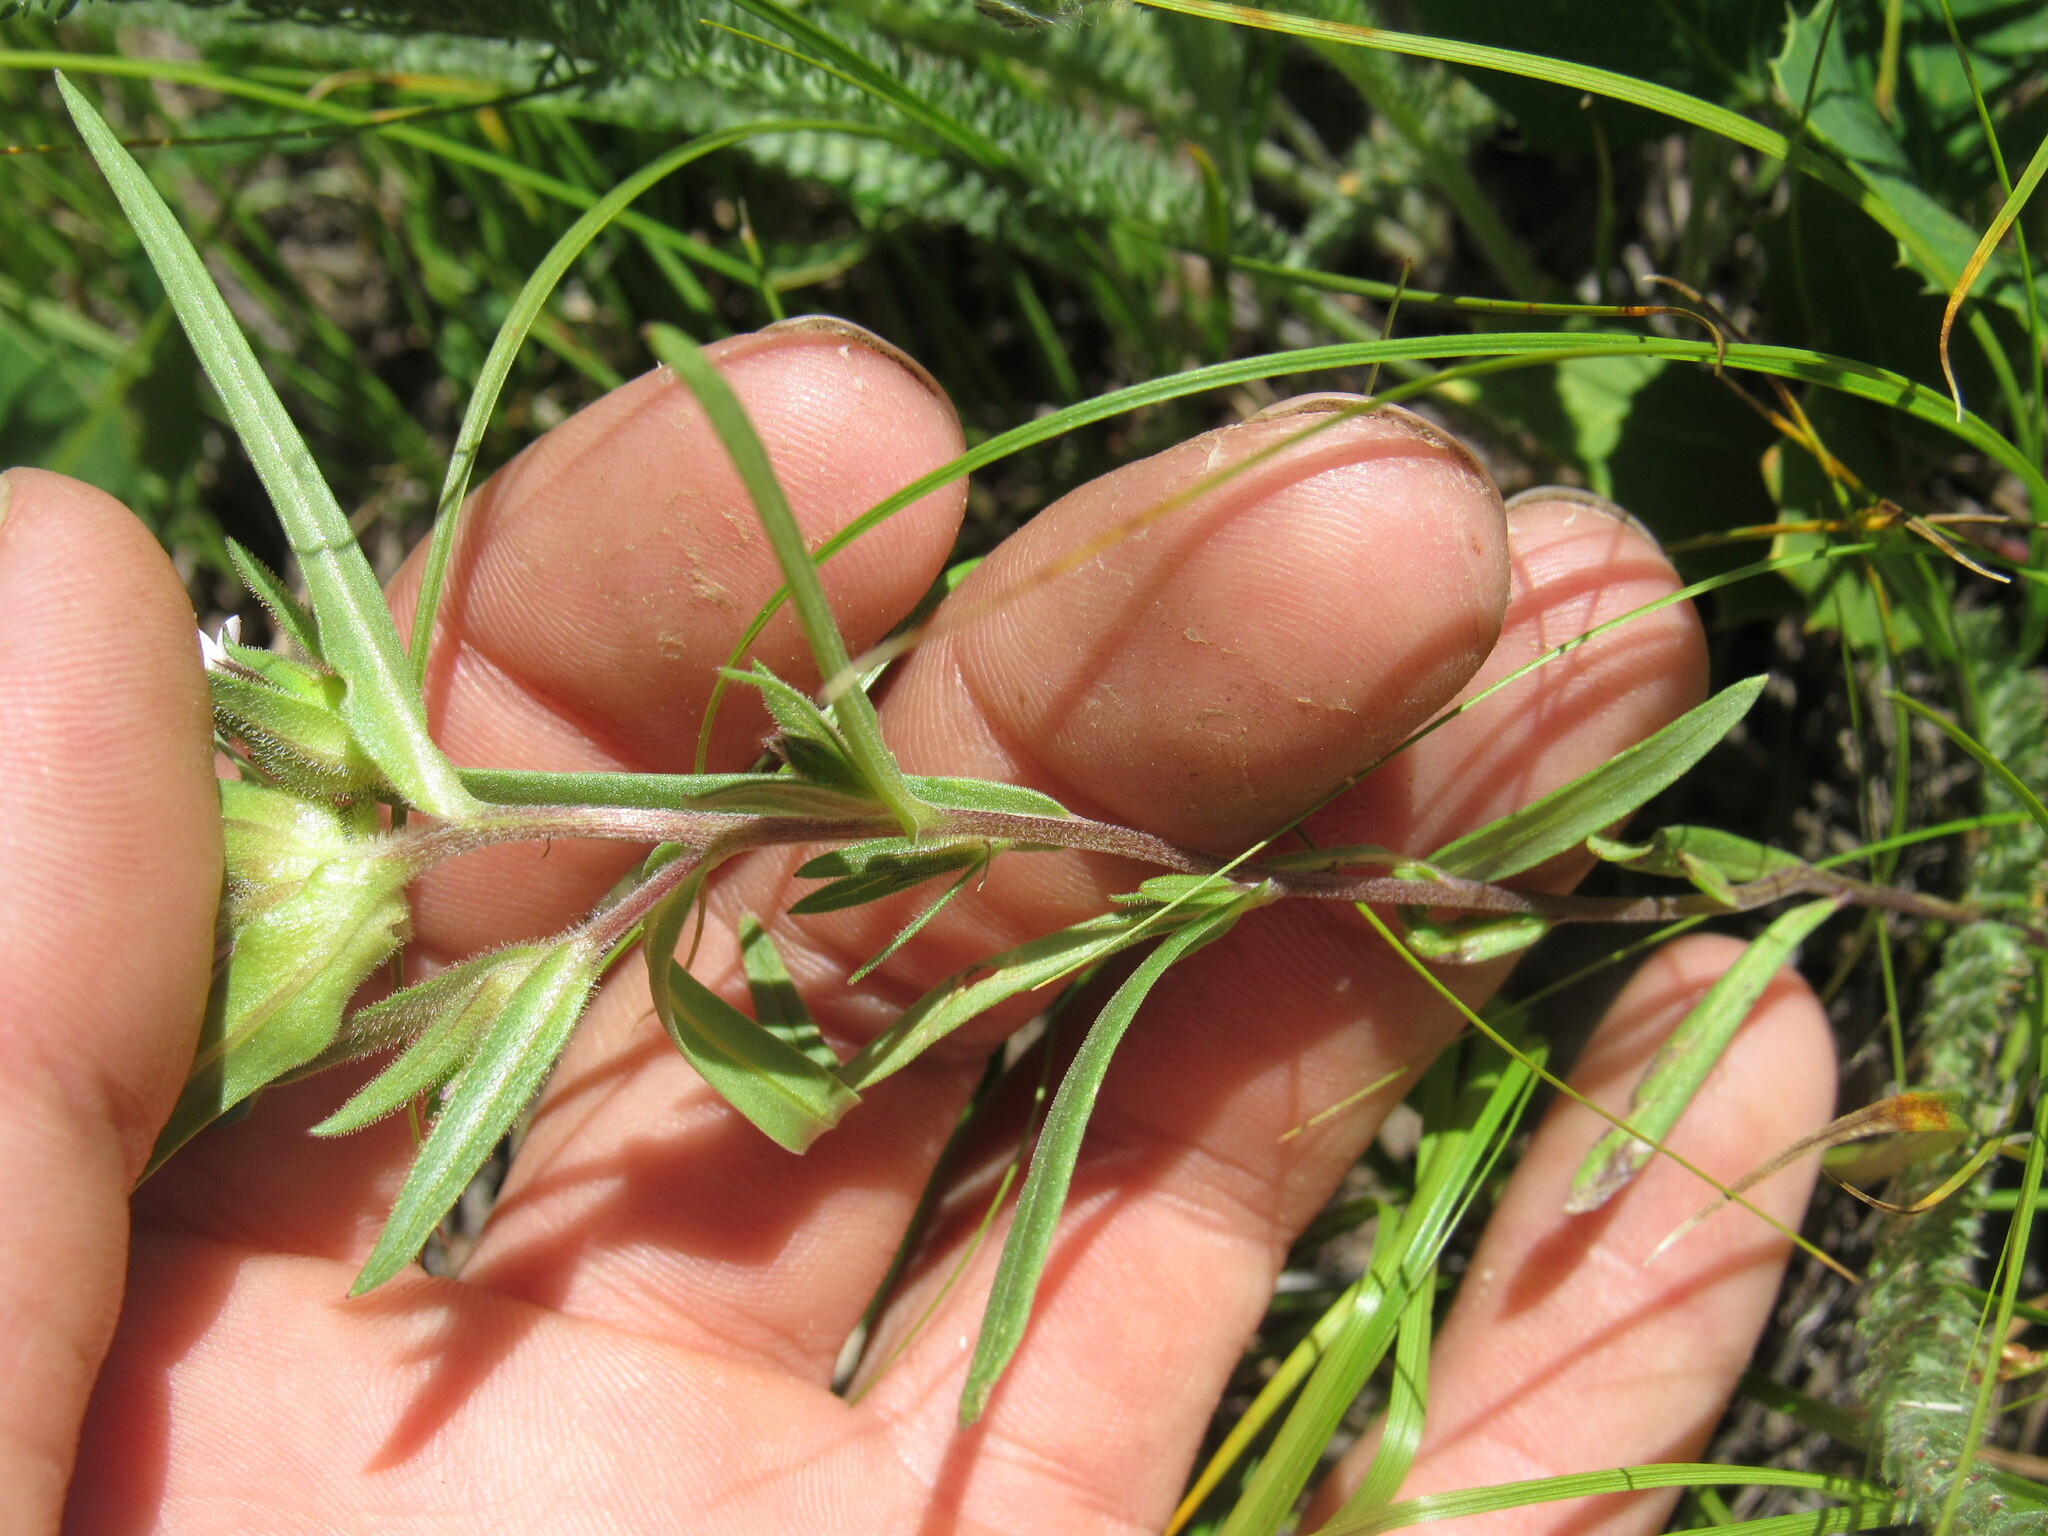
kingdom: Plantae
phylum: Tracheophyta
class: Magnoliopsida
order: Ericales
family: Polemoniaceae
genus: Collomia
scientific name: Collomia linearis
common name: Tiny trumpet
